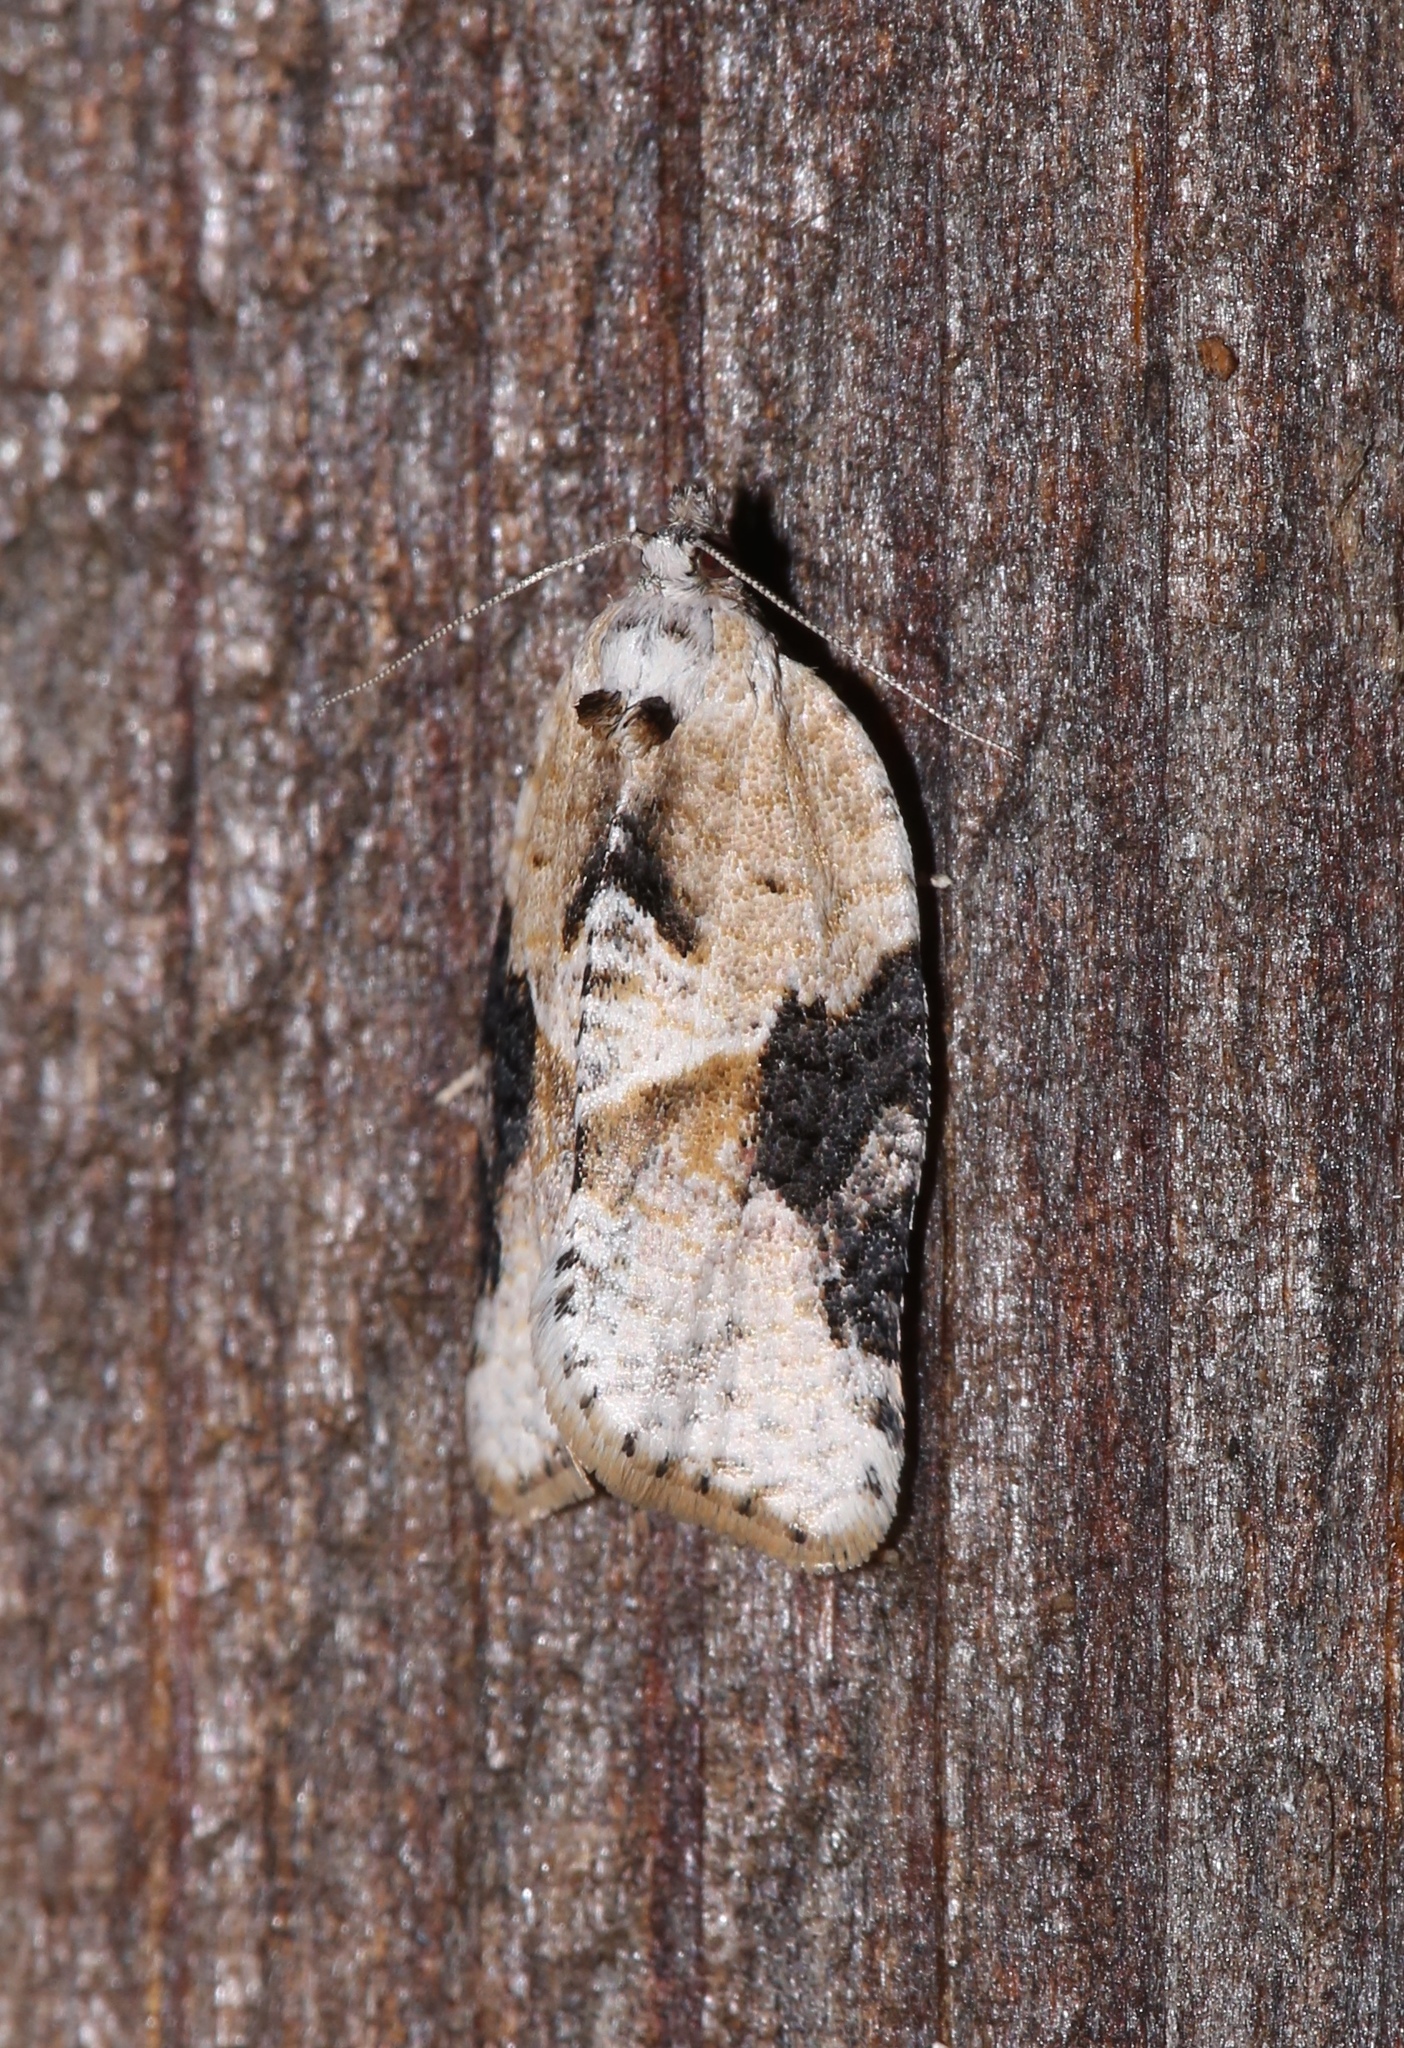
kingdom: Animalia
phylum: Arthropoda
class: Insecta
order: Lepidoptera
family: Tortricidae
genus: Argyrotaenia
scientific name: Argyrotaenia mariana
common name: Gray-banded leafroller moth
